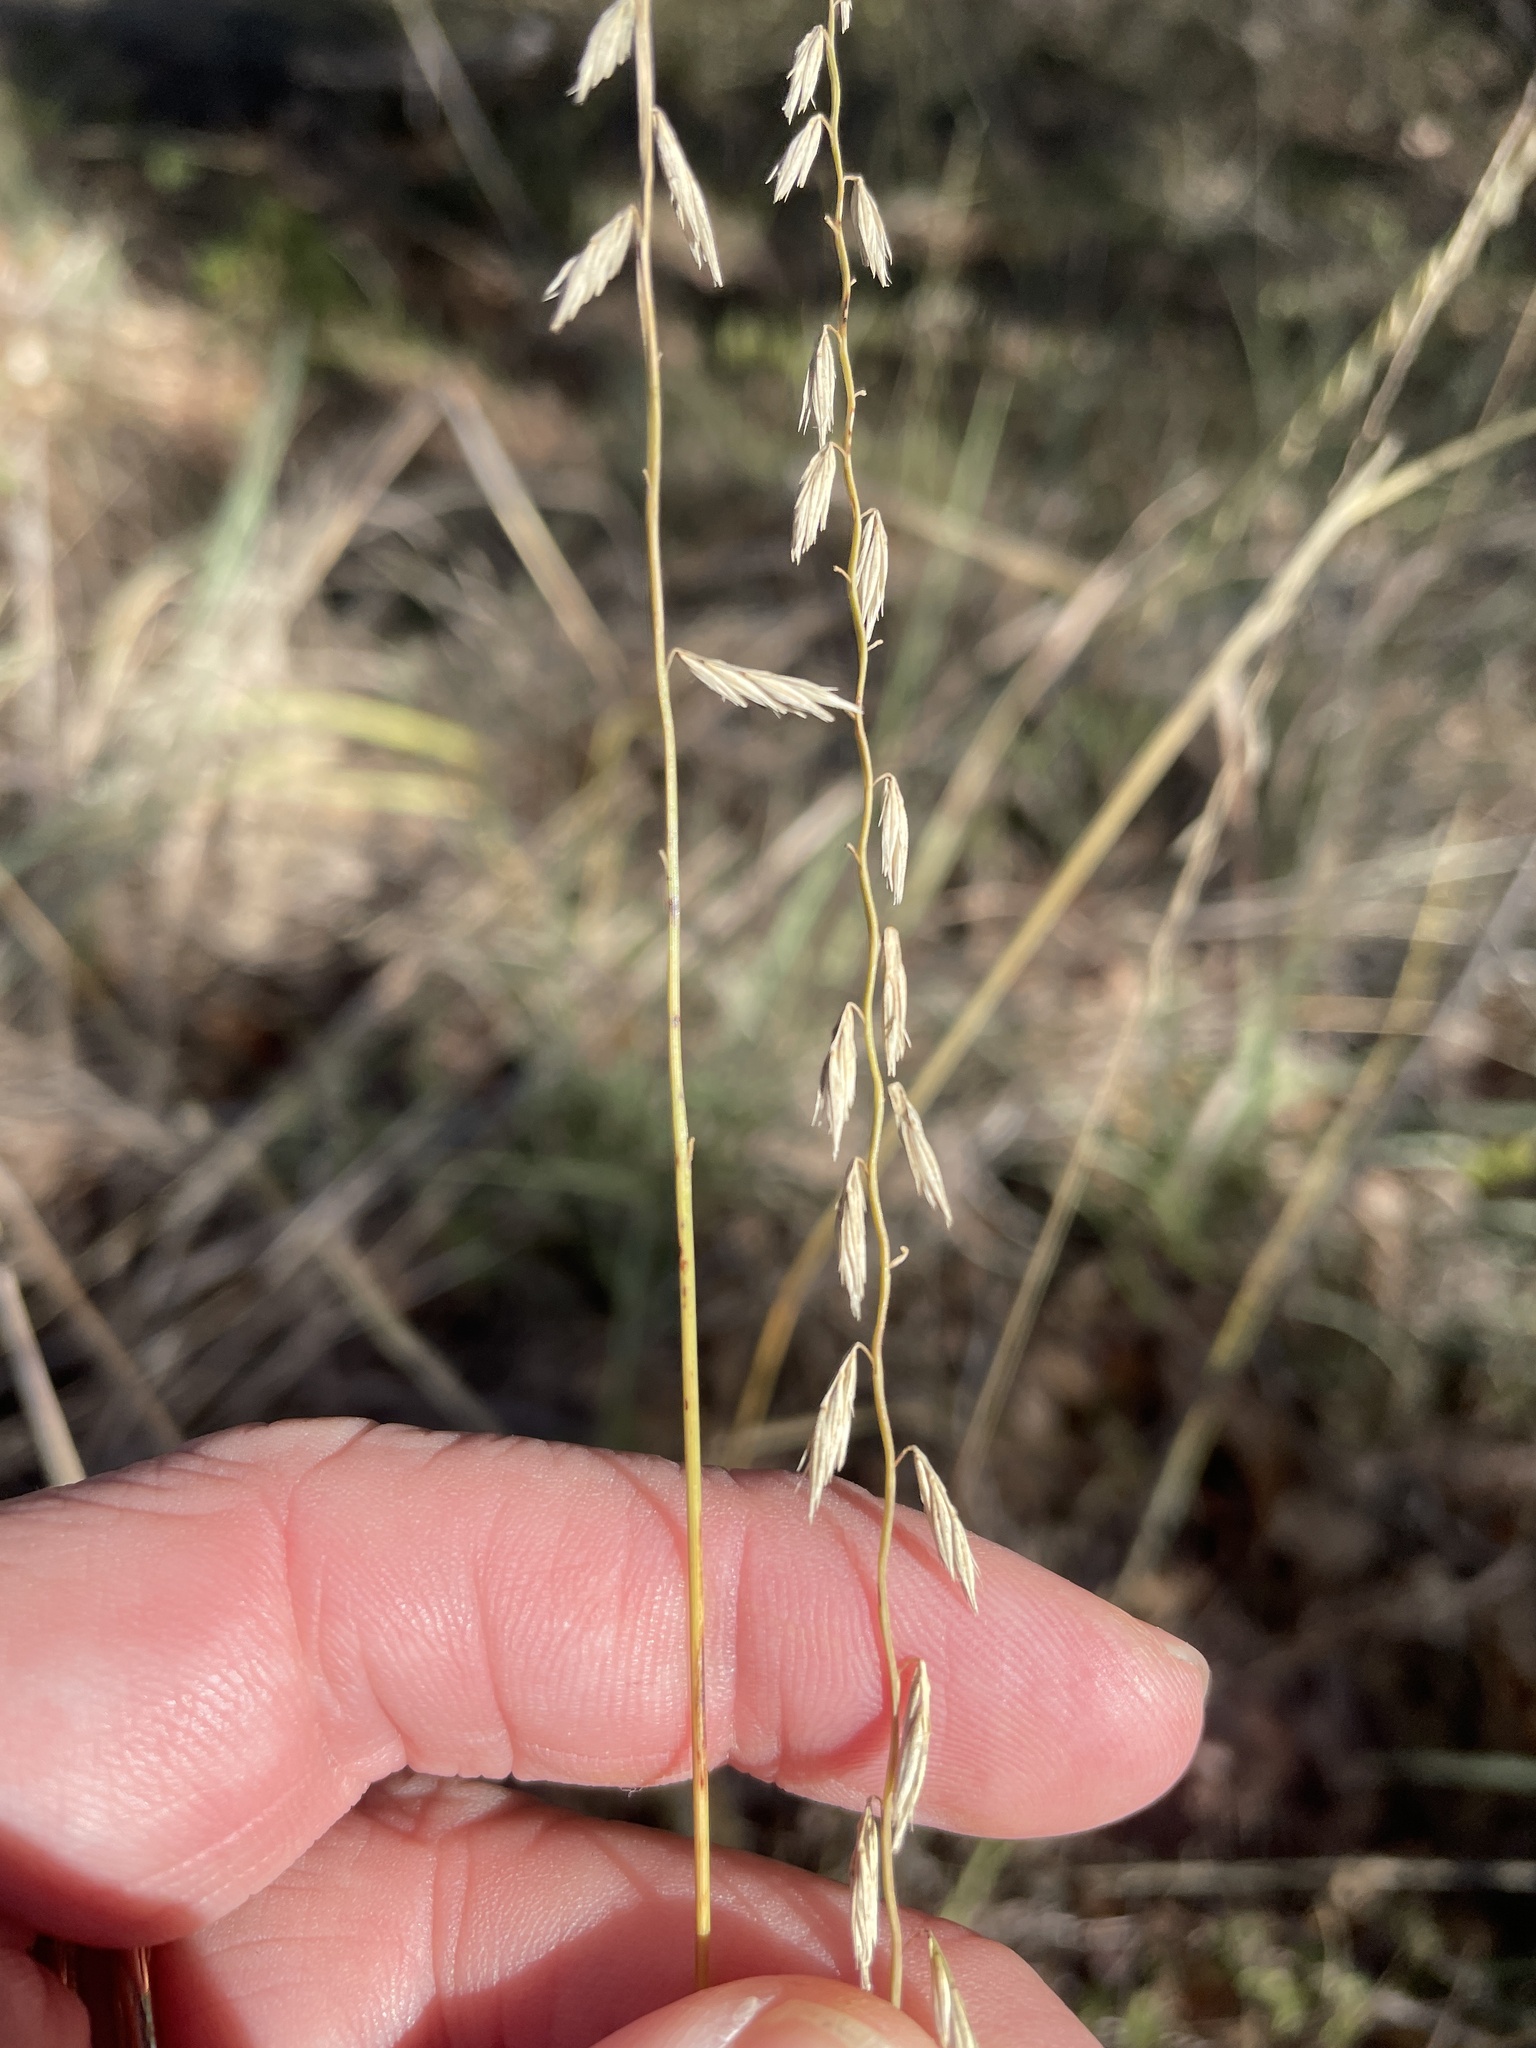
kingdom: Plantae
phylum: Tracheophyta
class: Liliopsida
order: Poales
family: Poaceae
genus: Bouteloua
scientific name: Bouteloua curtipendula
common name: Side-oats grama
